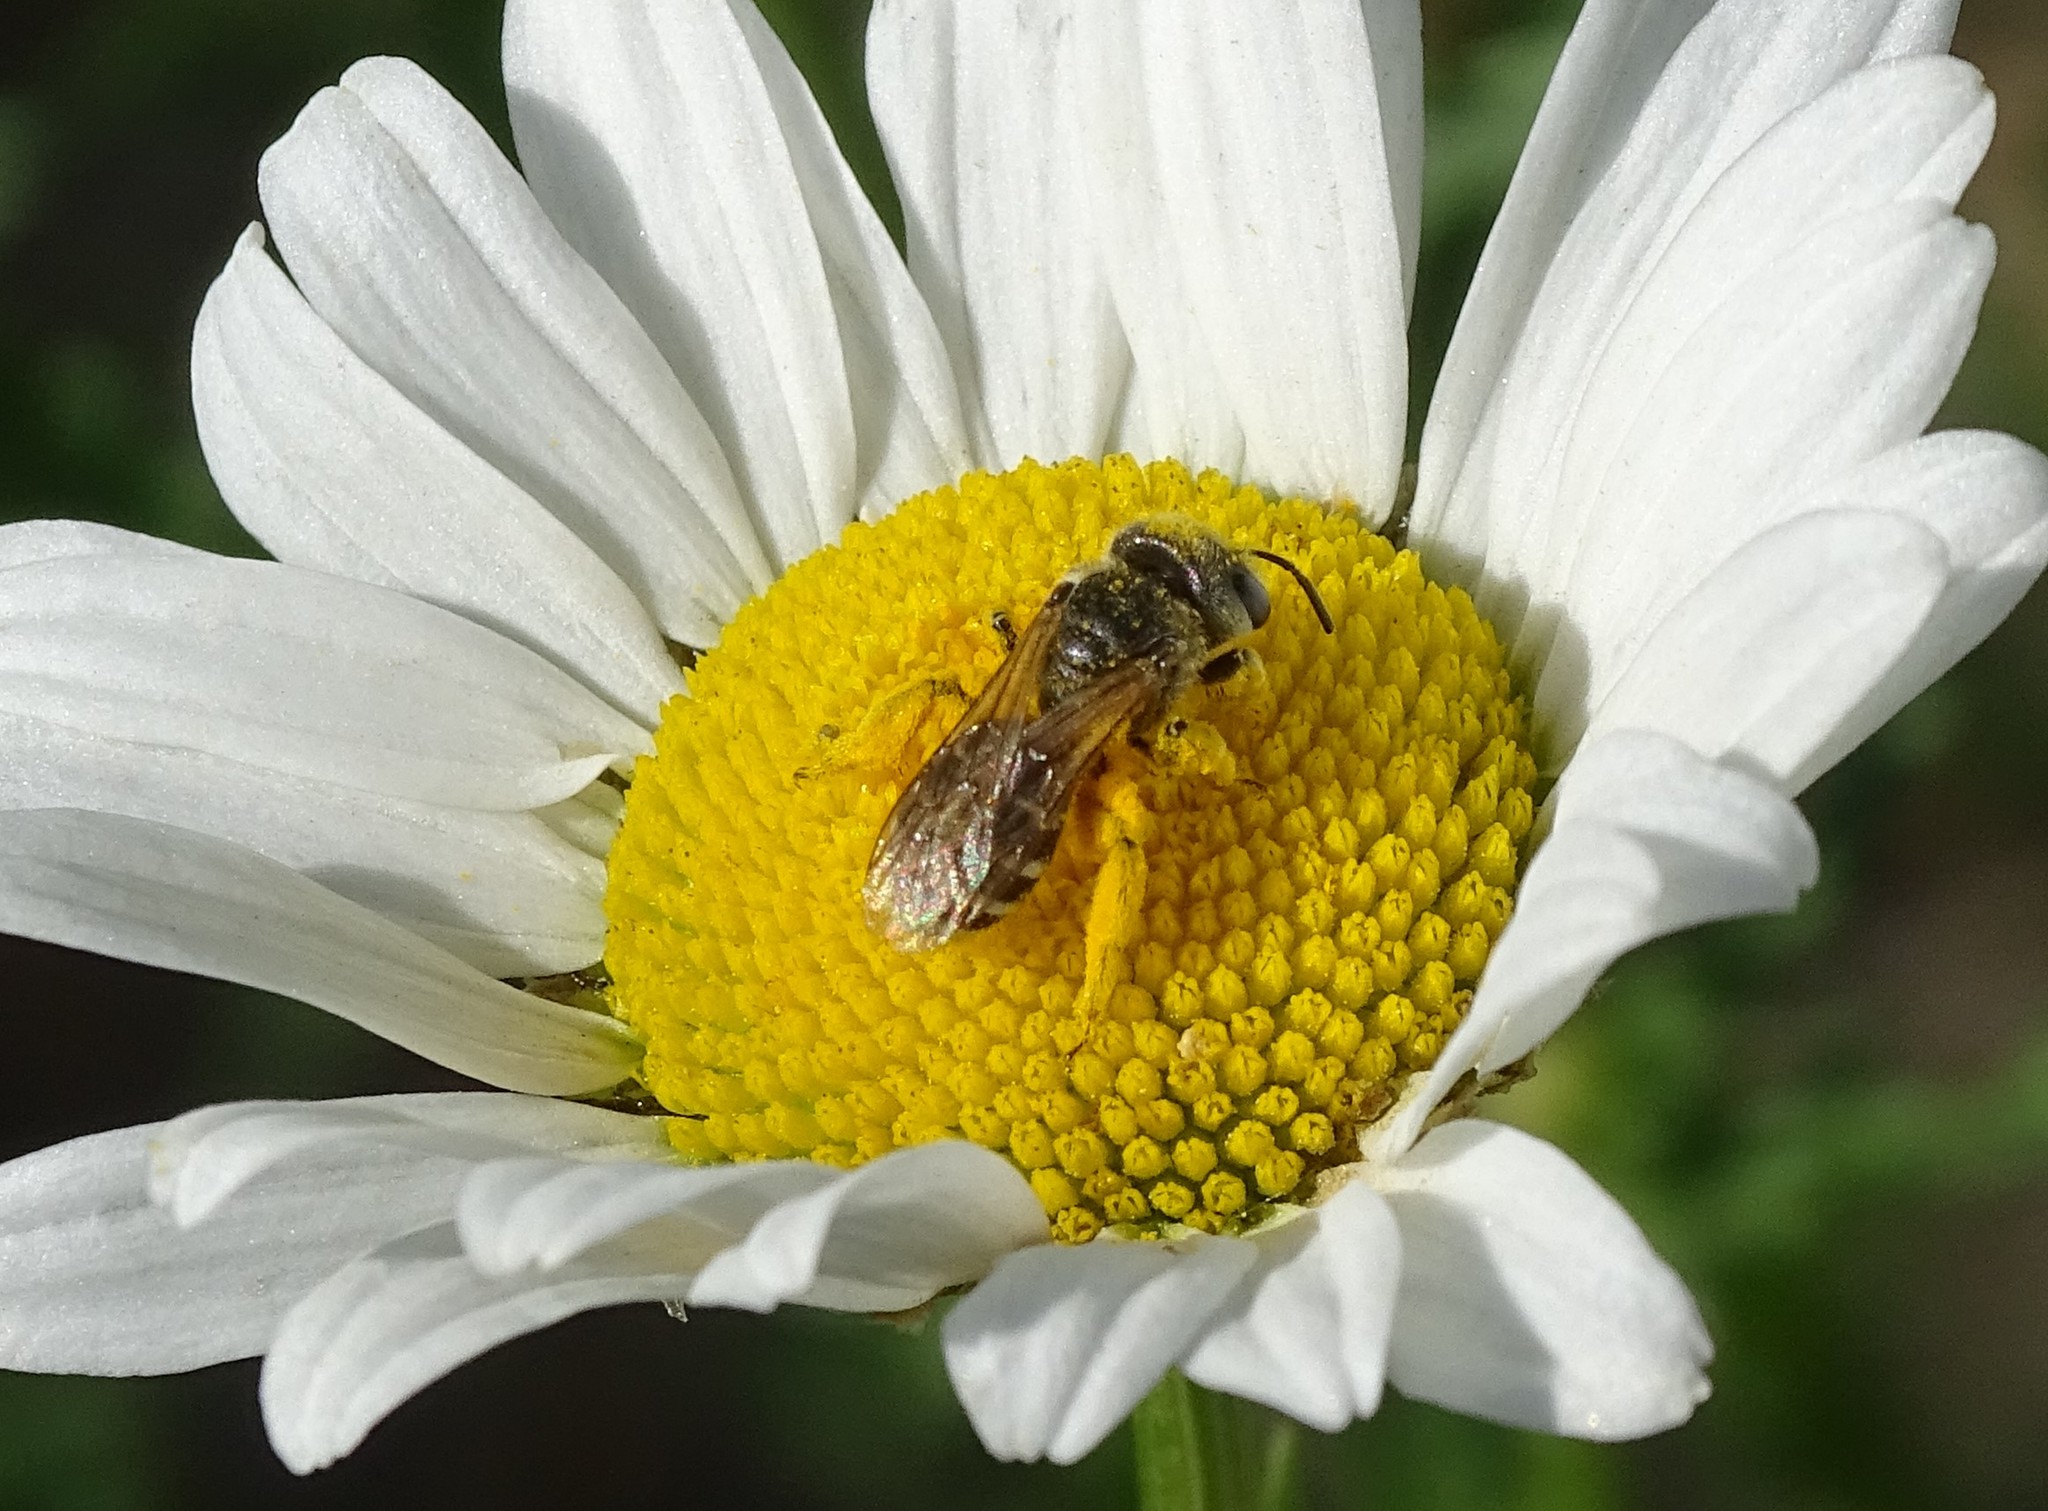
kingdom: Animalia
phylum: Arthropoda
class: Insecta
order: Hymenoptera
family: Halictidae
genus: Halictus
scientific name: Halictus ligatus
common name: Ligated furrow bee
